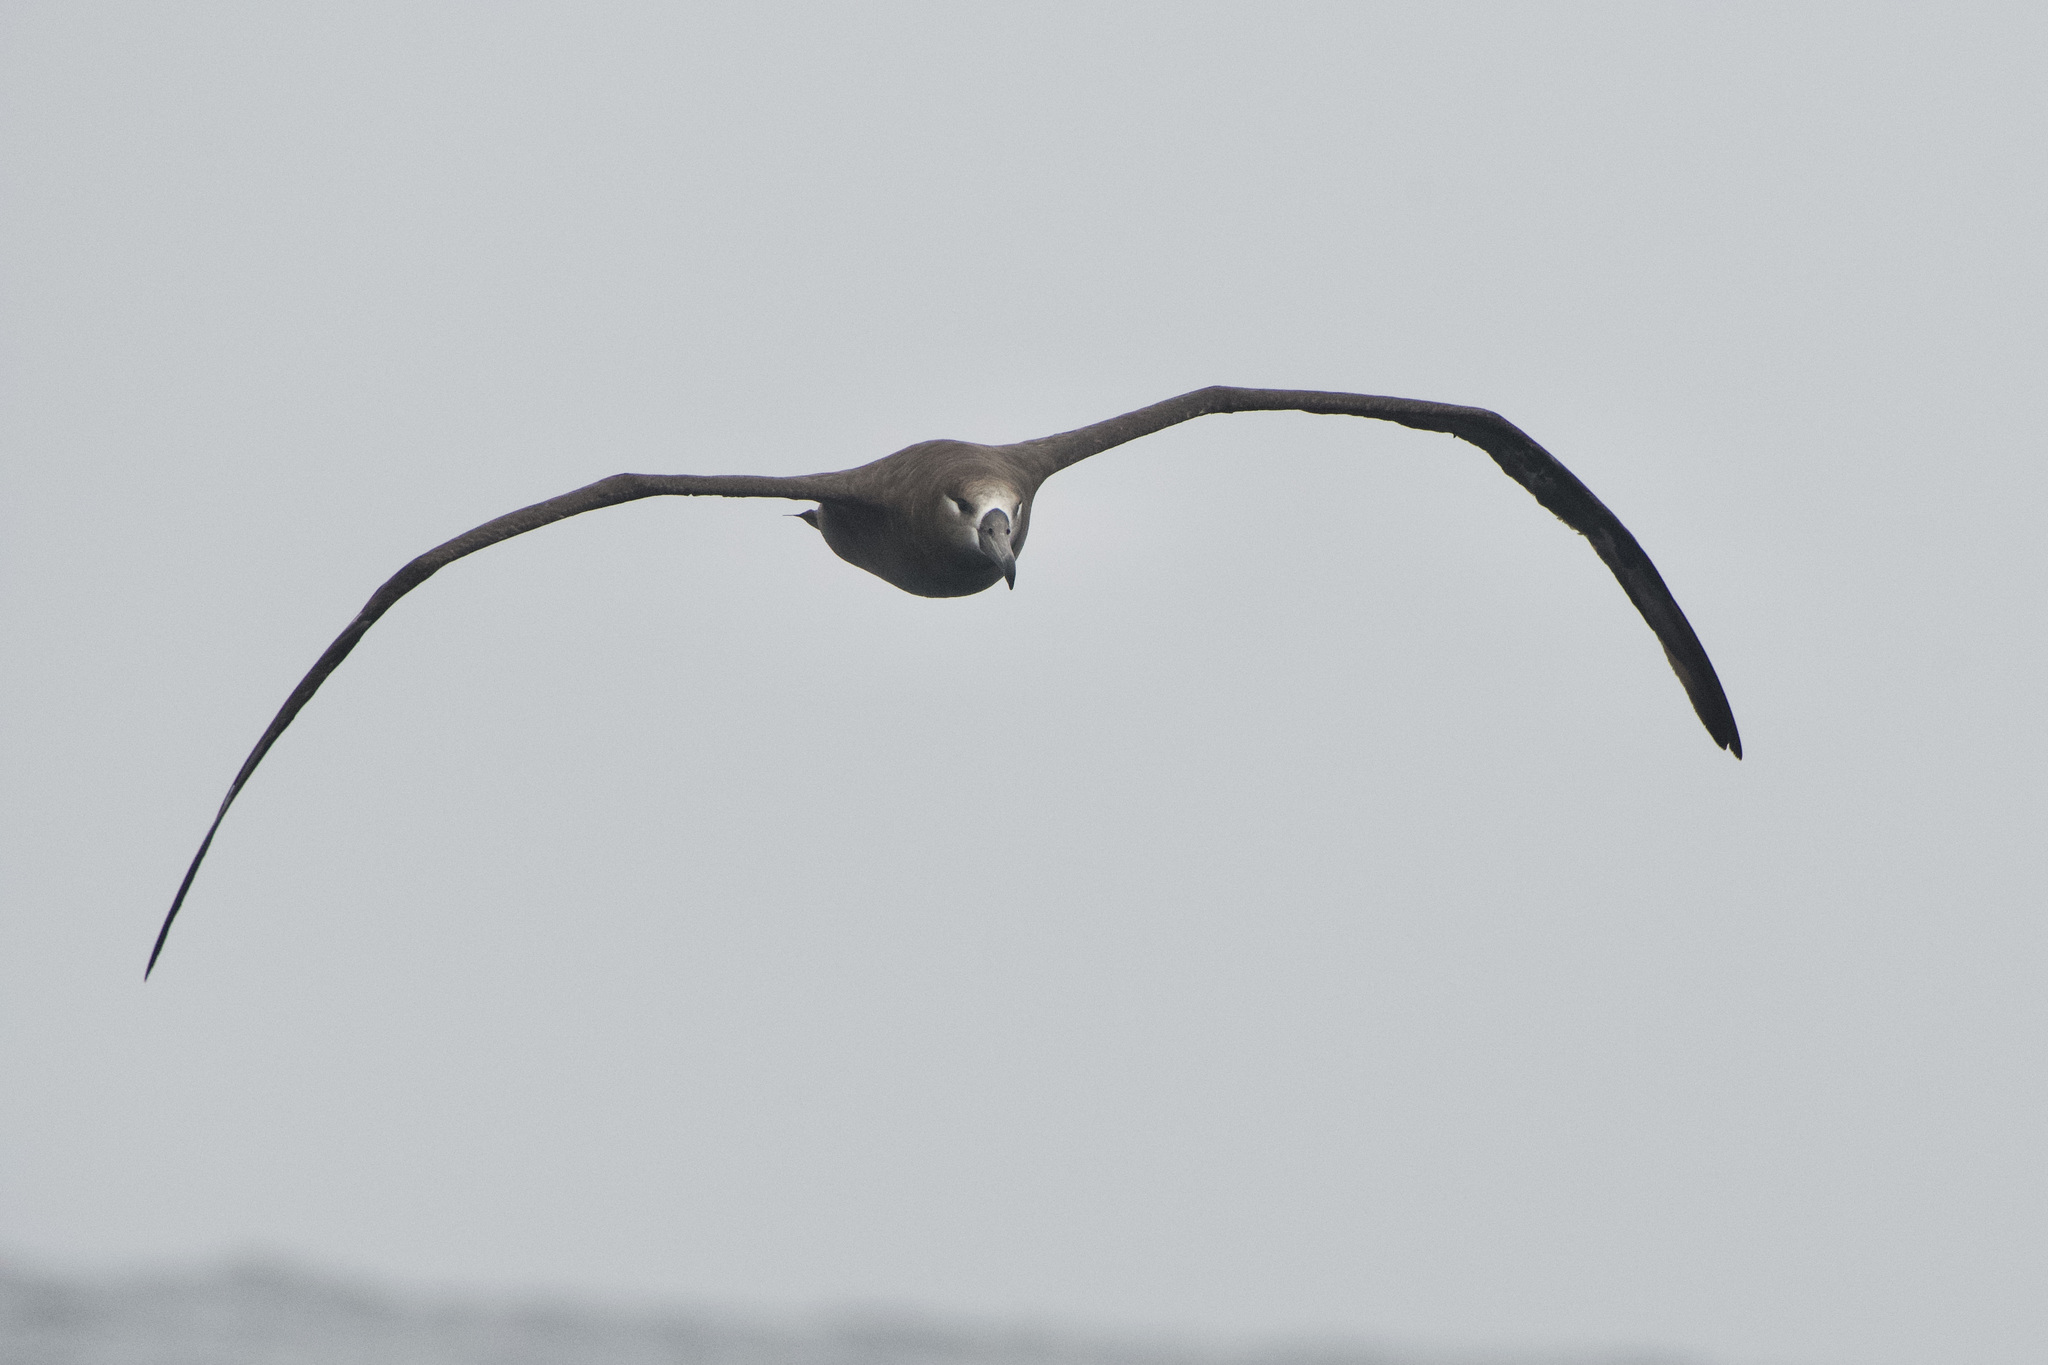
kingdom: Animalia
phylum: Chordata
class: Aves
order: Procellariiformes
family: Diomedeidae
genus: Phoebastria
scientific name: Phoebastria nigripes
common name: Black-footed albatross
